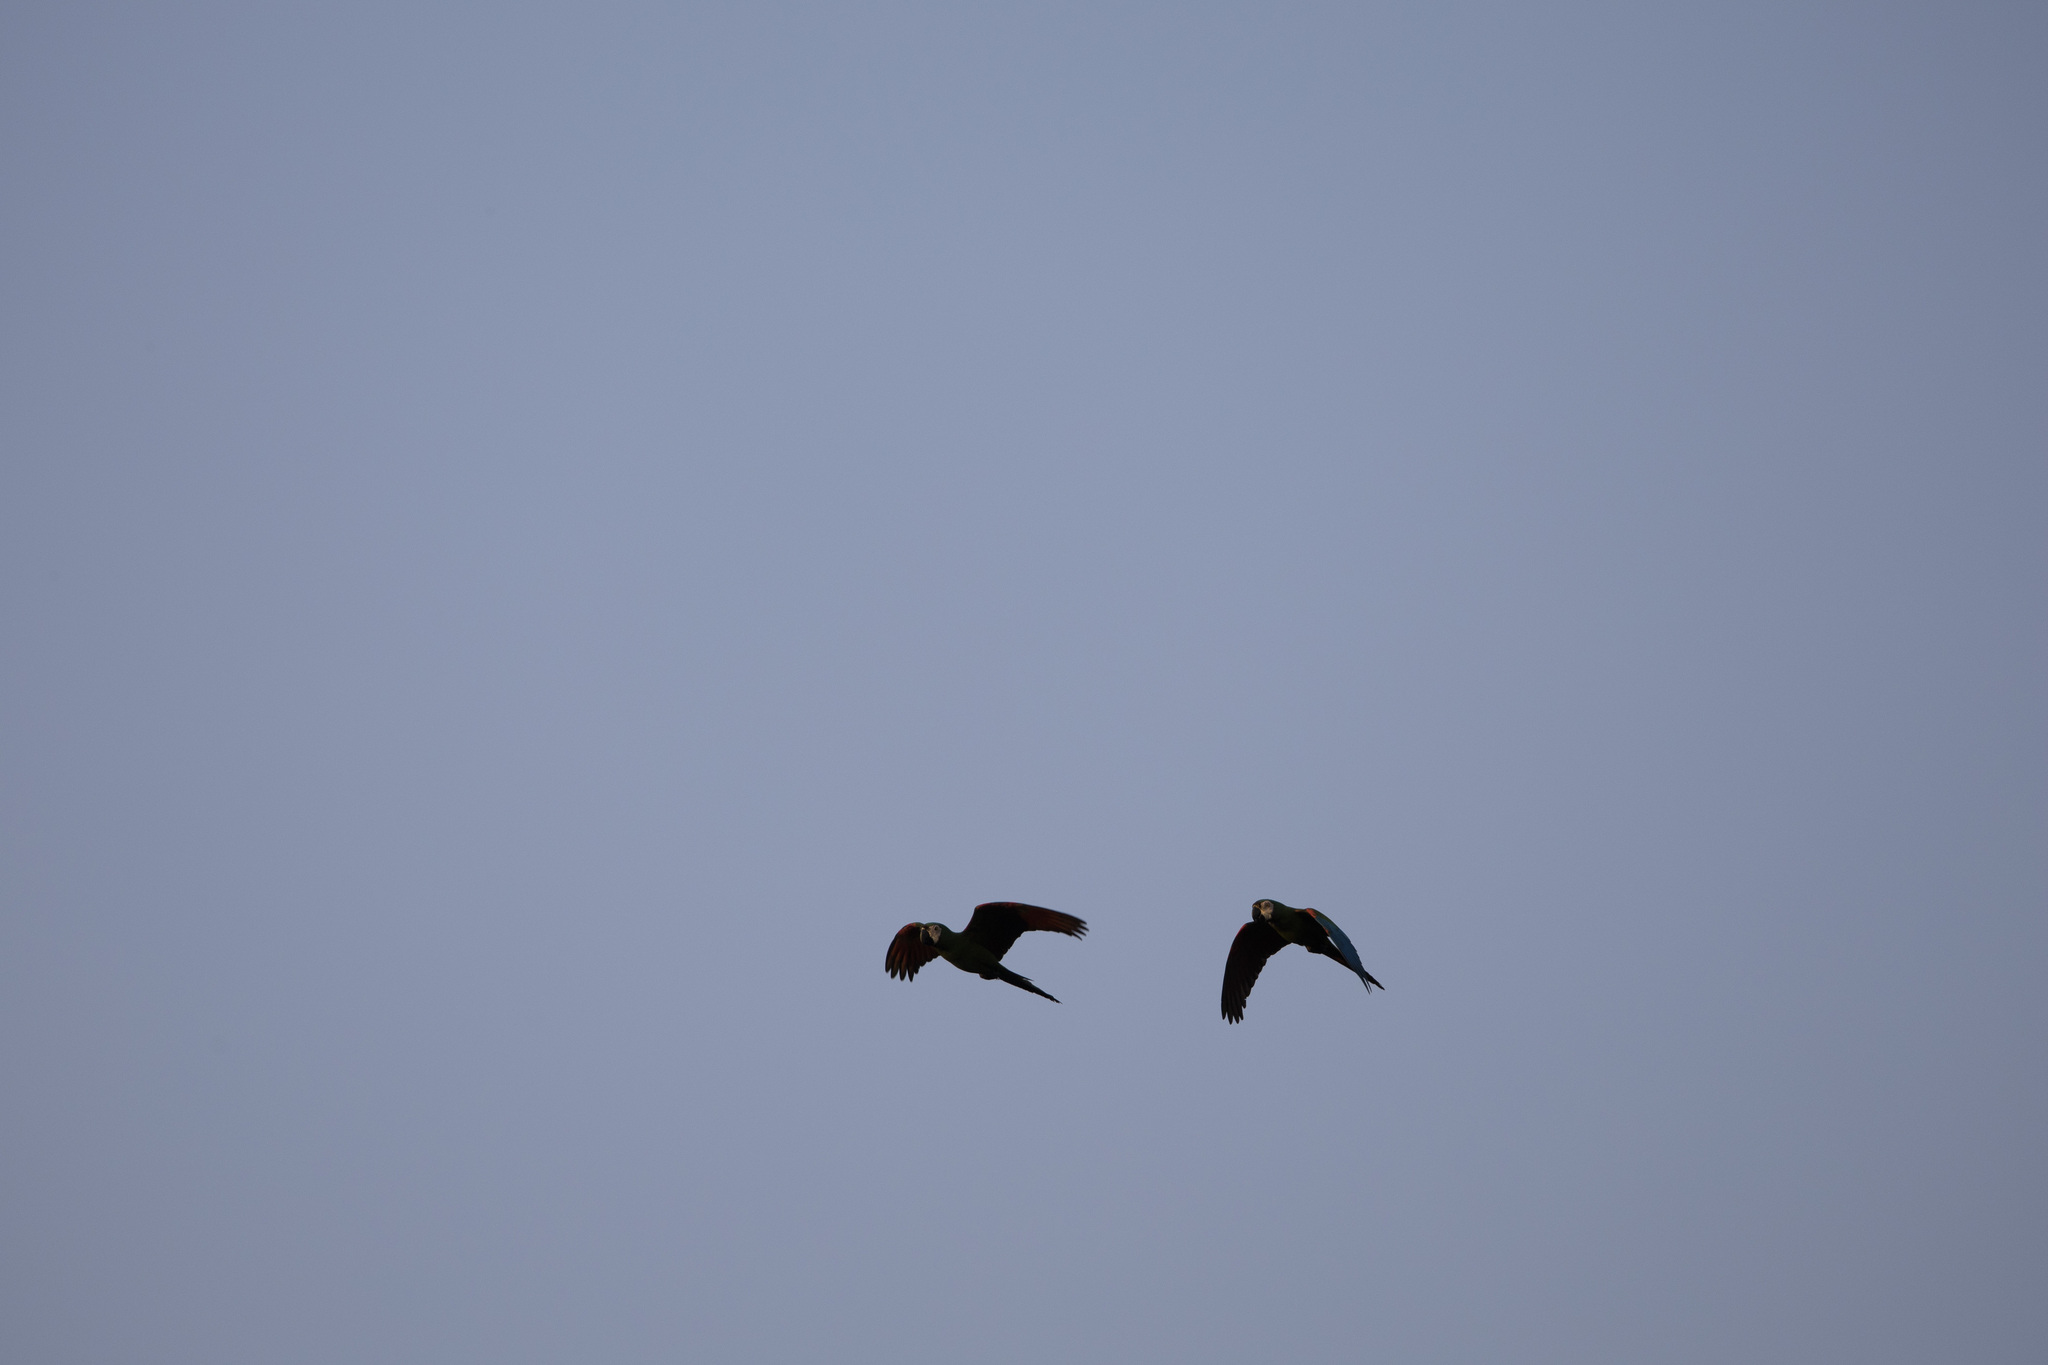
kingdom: Animalia
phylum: Chordata
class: Aves
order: Psittaciformes
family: Psittacidae
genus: Ara
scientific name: Ara severus
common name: Chestnut-fronted macaw
